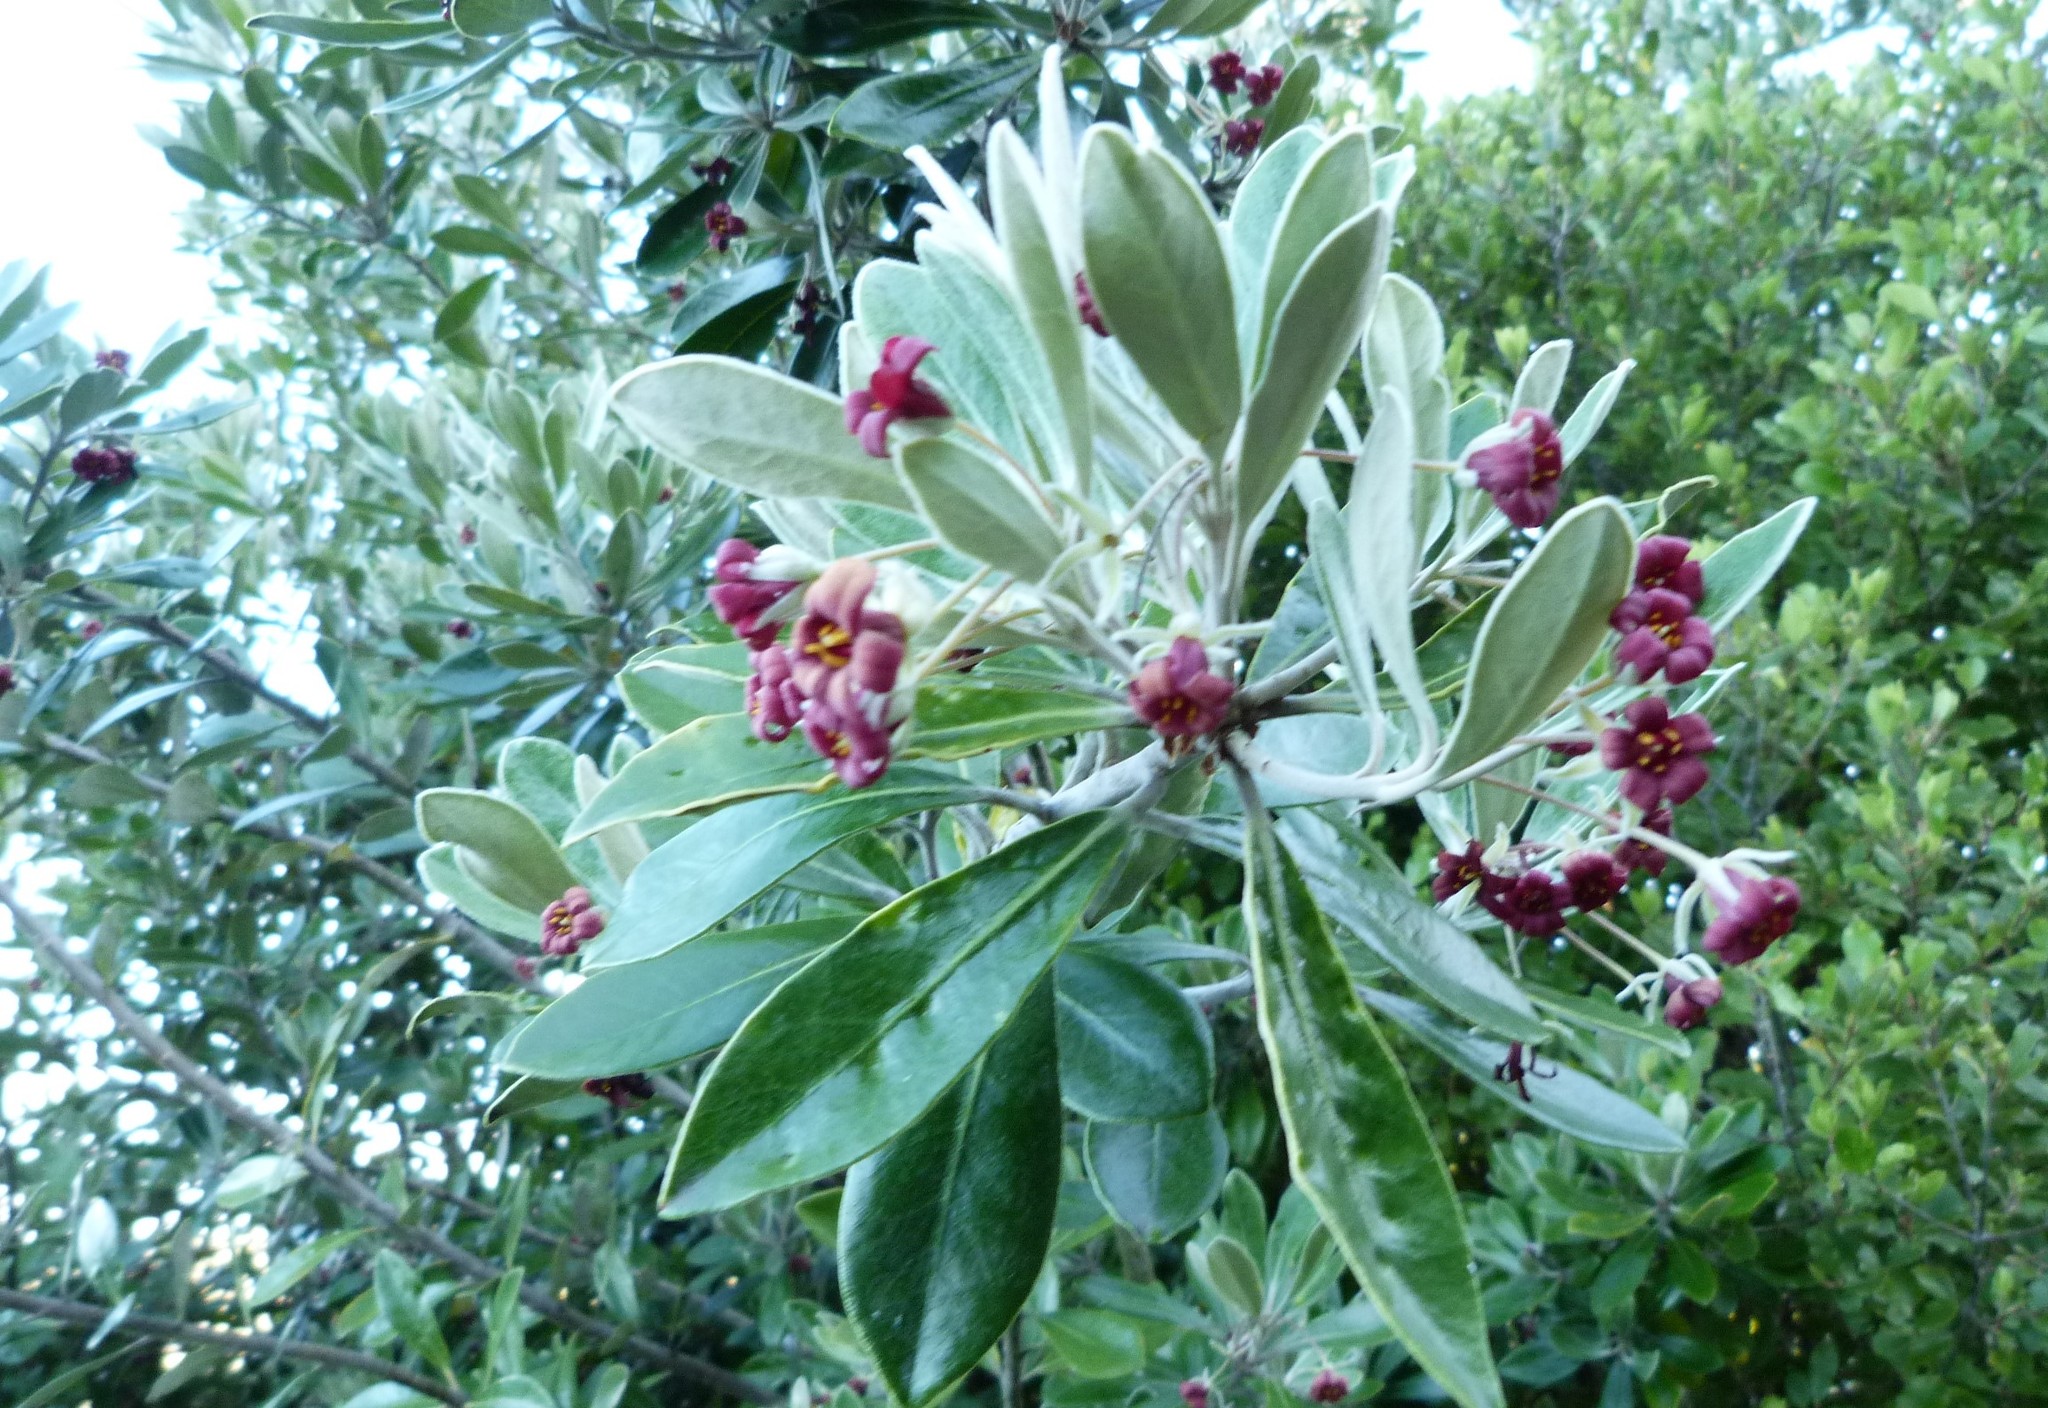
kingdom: Plantae
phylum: Tracheophyta
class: Magnoliopsida
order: Apiales
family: Pittosporaceae
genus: Pittosporum
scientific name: Pittosporum crassifolium
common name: Karo
